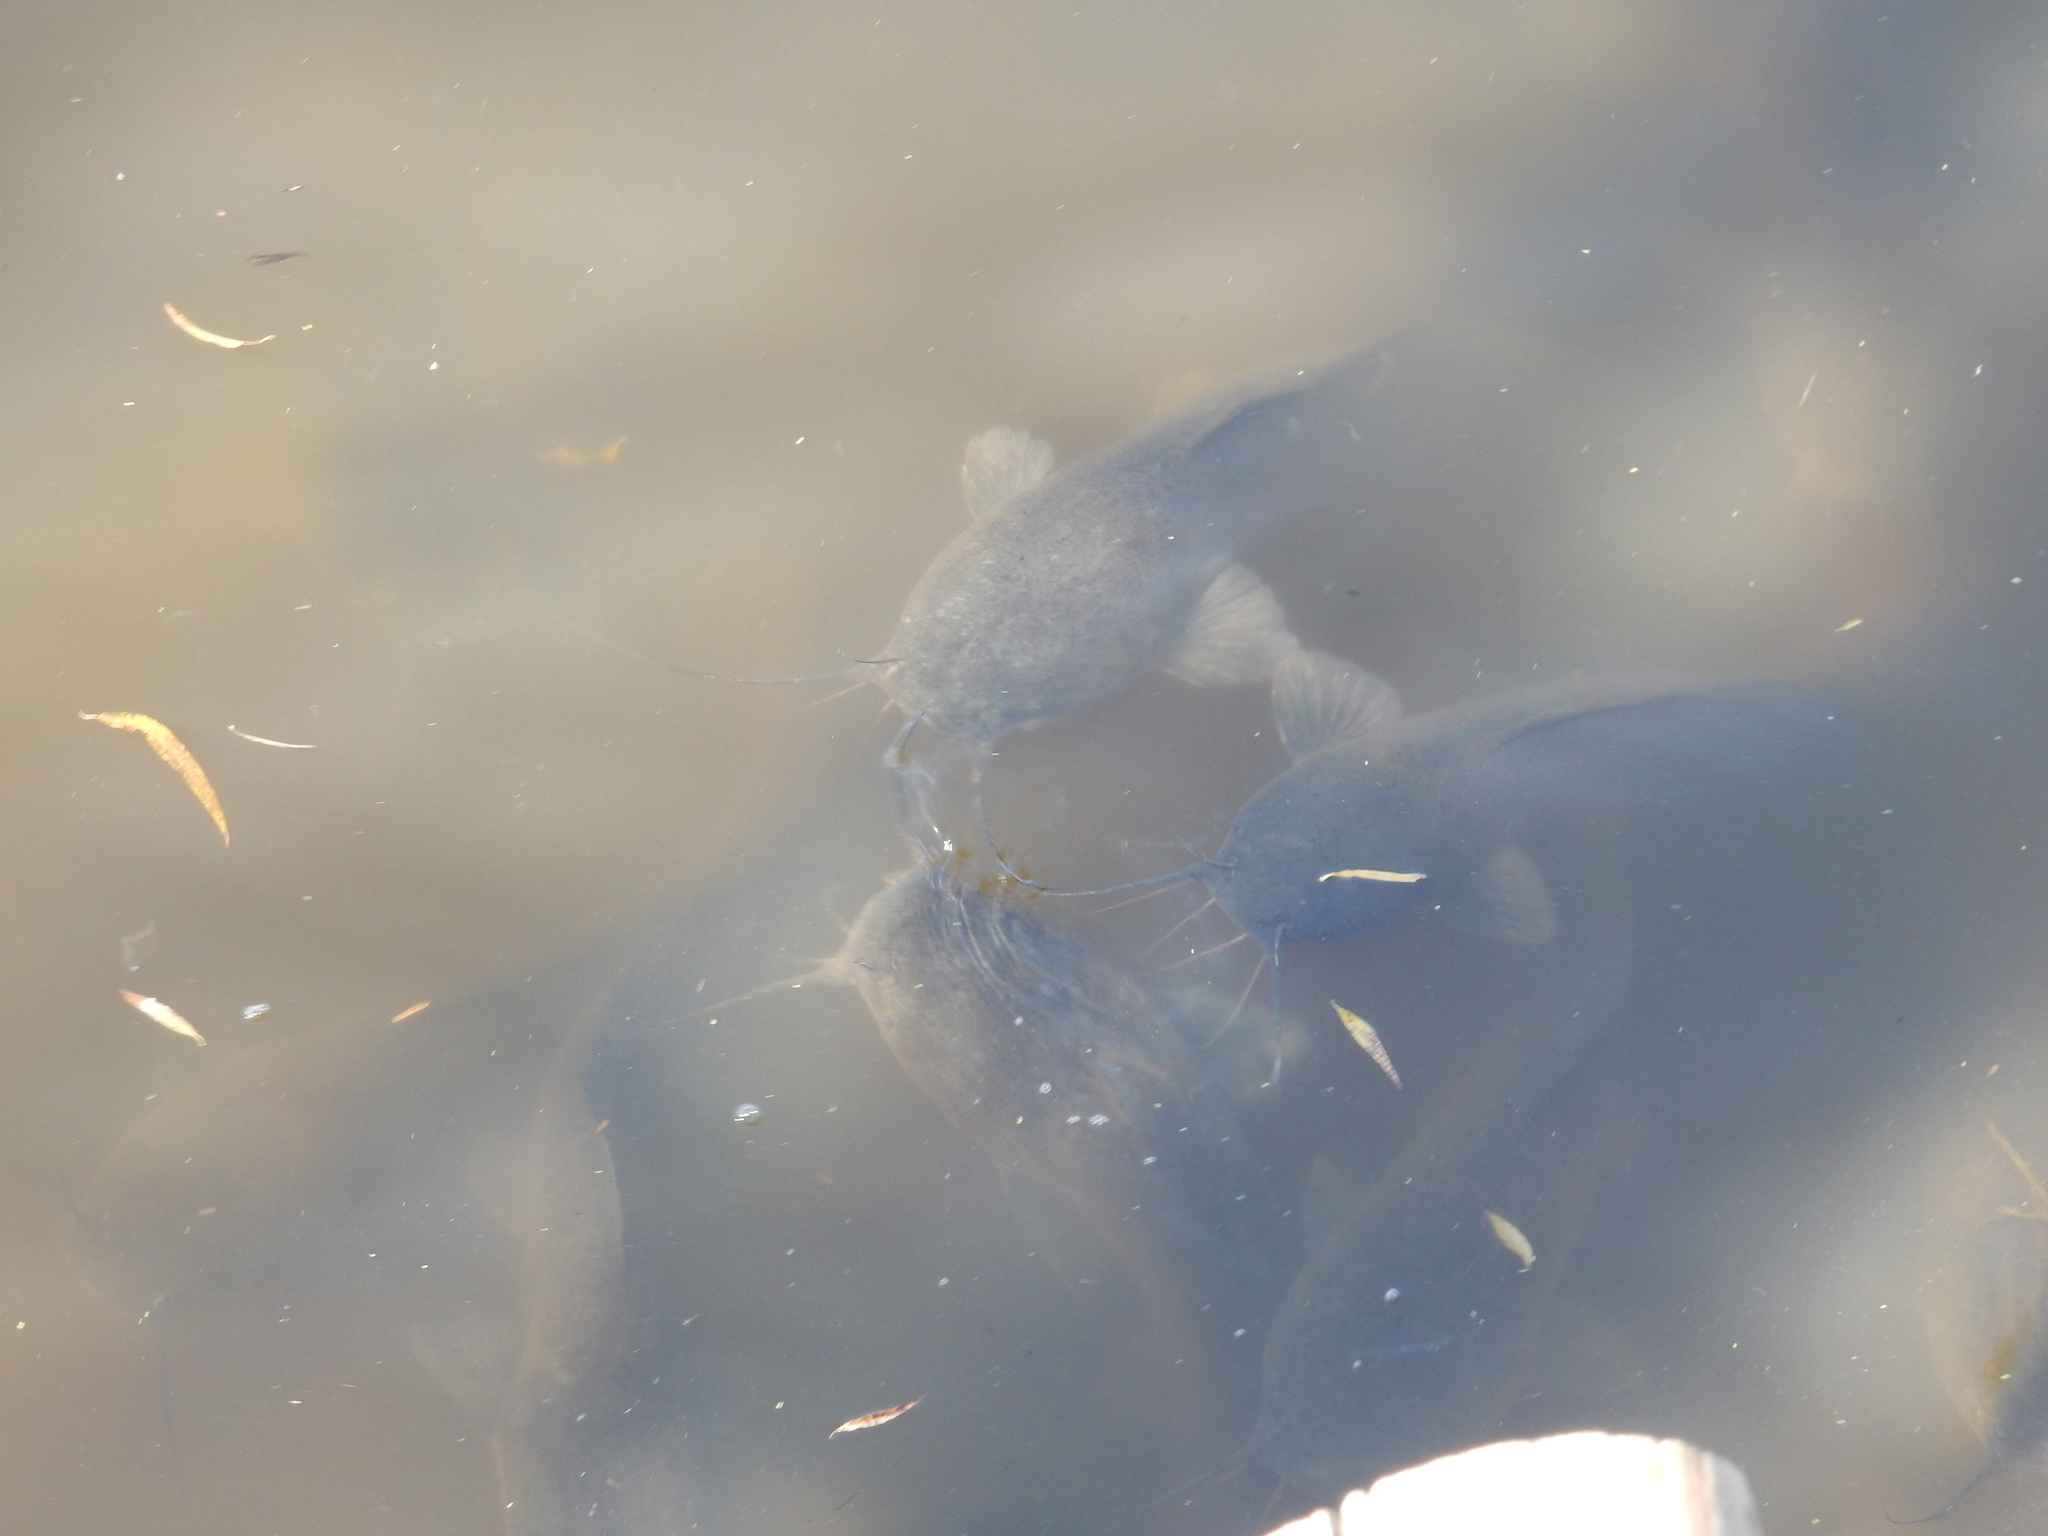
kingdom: Animalia
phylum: Chordata
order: Siluriformes
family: Clariidae
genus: Clarias
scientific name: Clarias gariepinus
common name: African catfish
